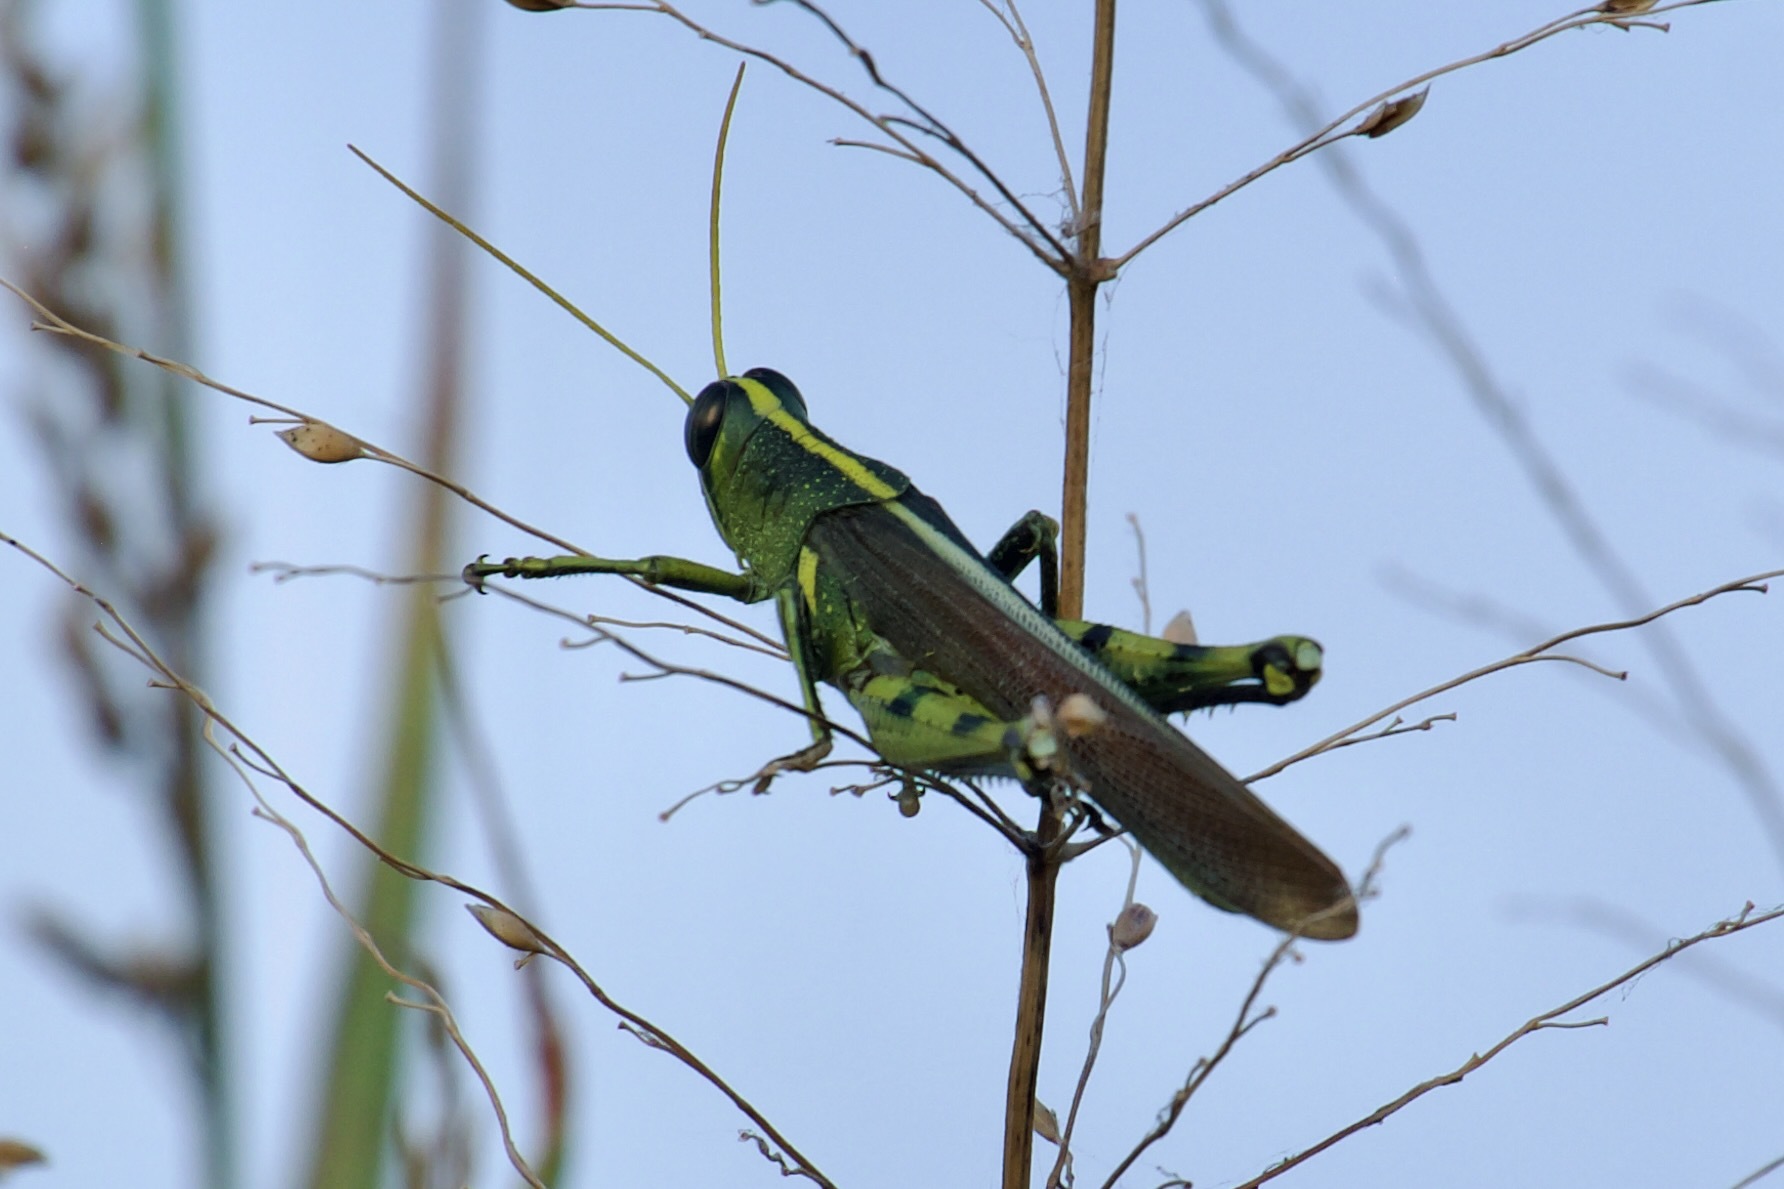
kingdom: Animalia
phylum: Arthropoda
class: Insecta
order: Orthoptera
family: Acrididae
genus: Schistocerca
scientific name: Schistocerca obscura
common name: Obscure bird grasshopper
